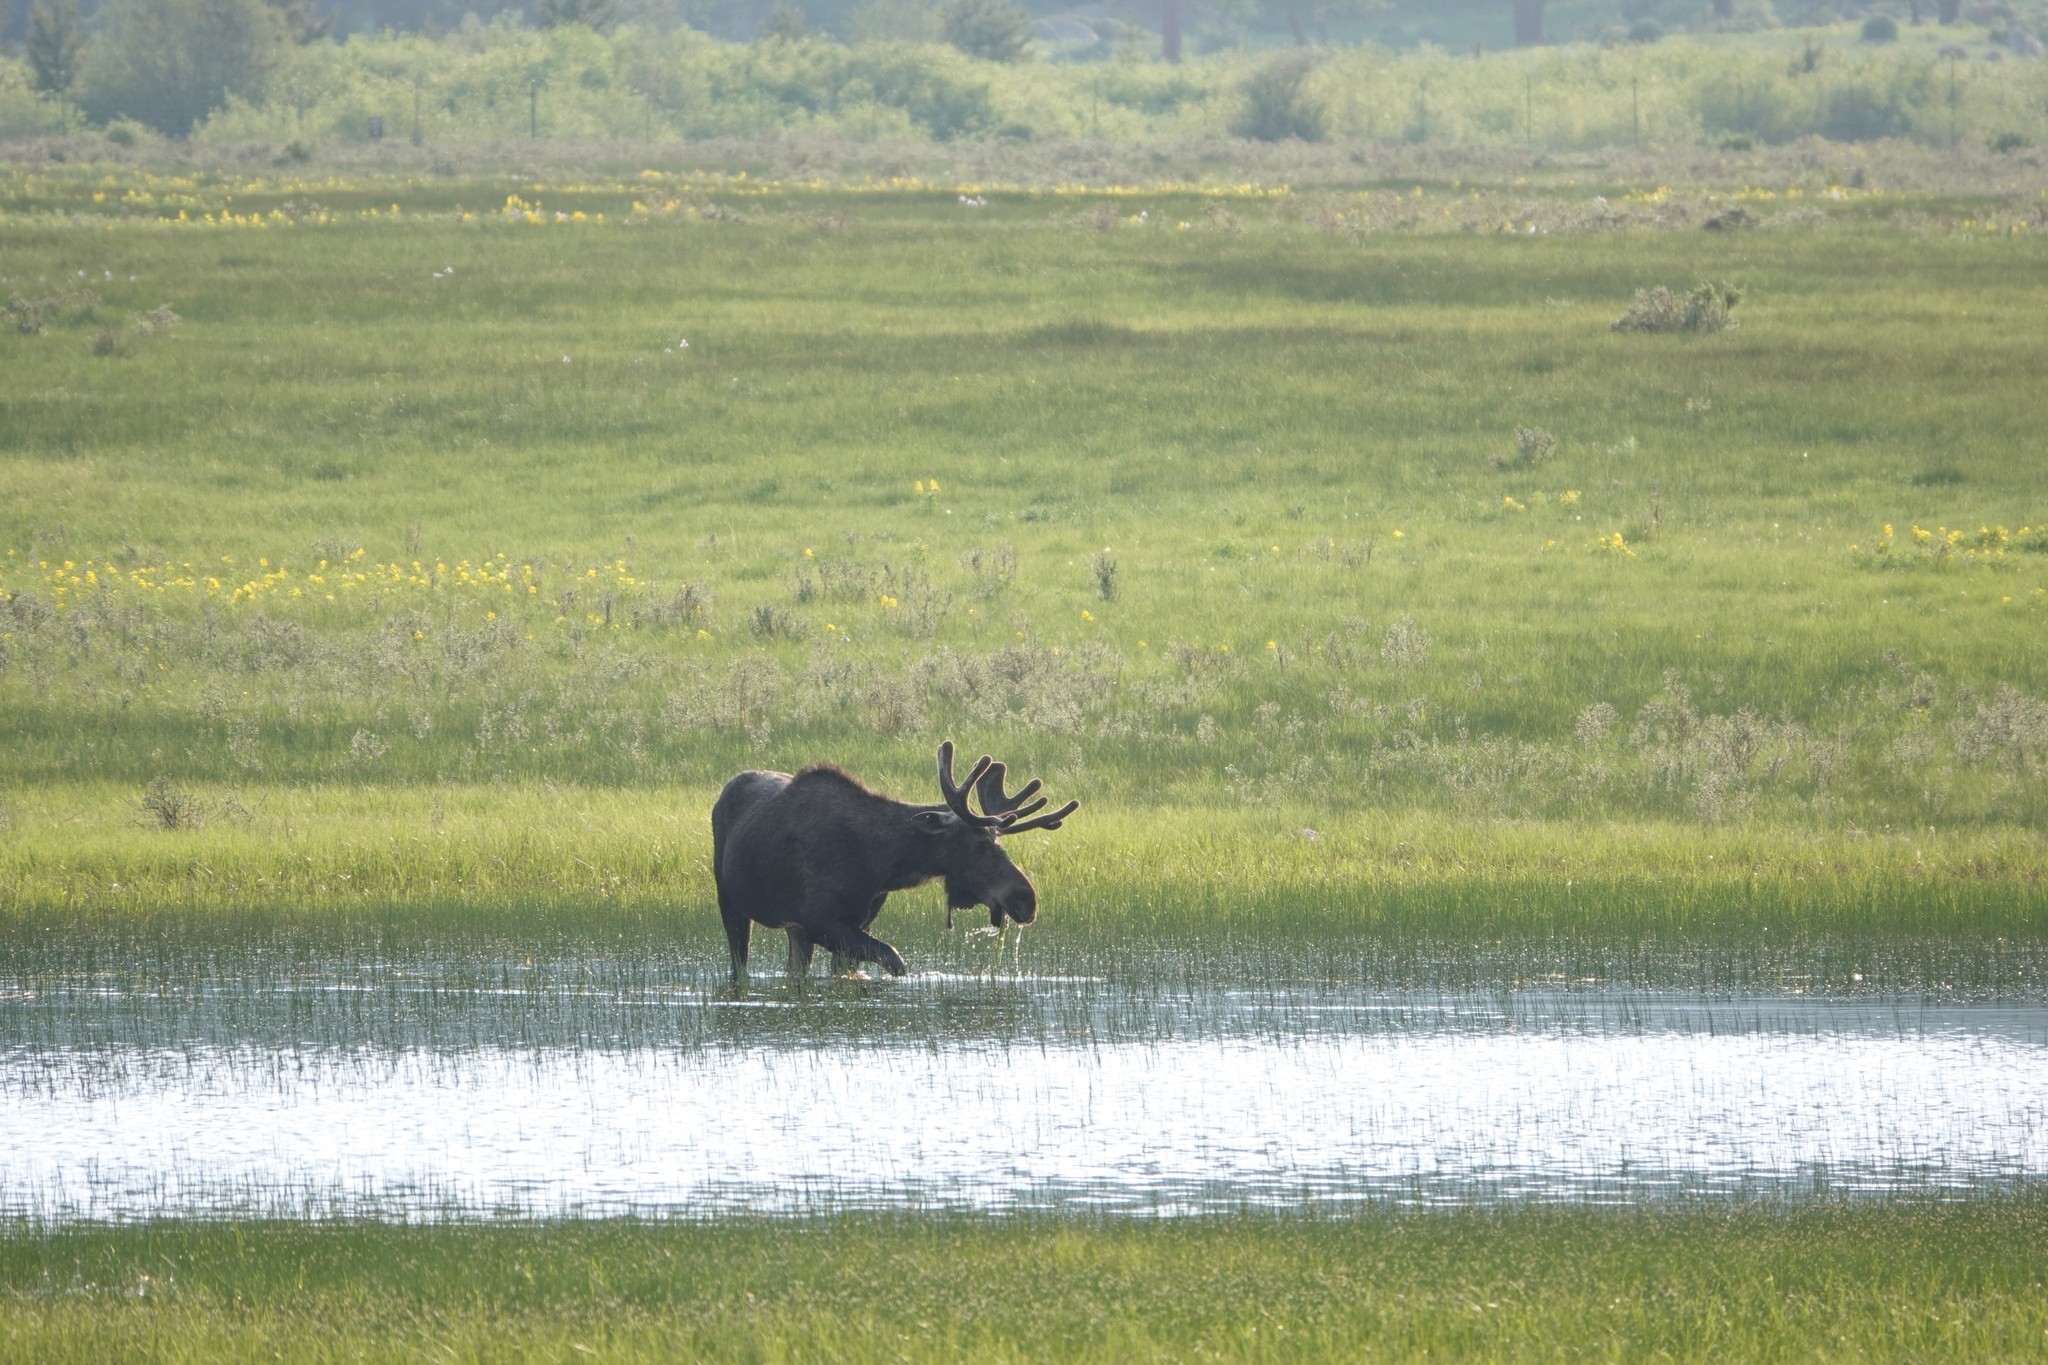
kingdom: Animalia
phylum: Chordata
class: Mammalia
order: Artiodactyla
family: Cervidae
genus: Alces
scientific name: Alces alces
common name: Moose
